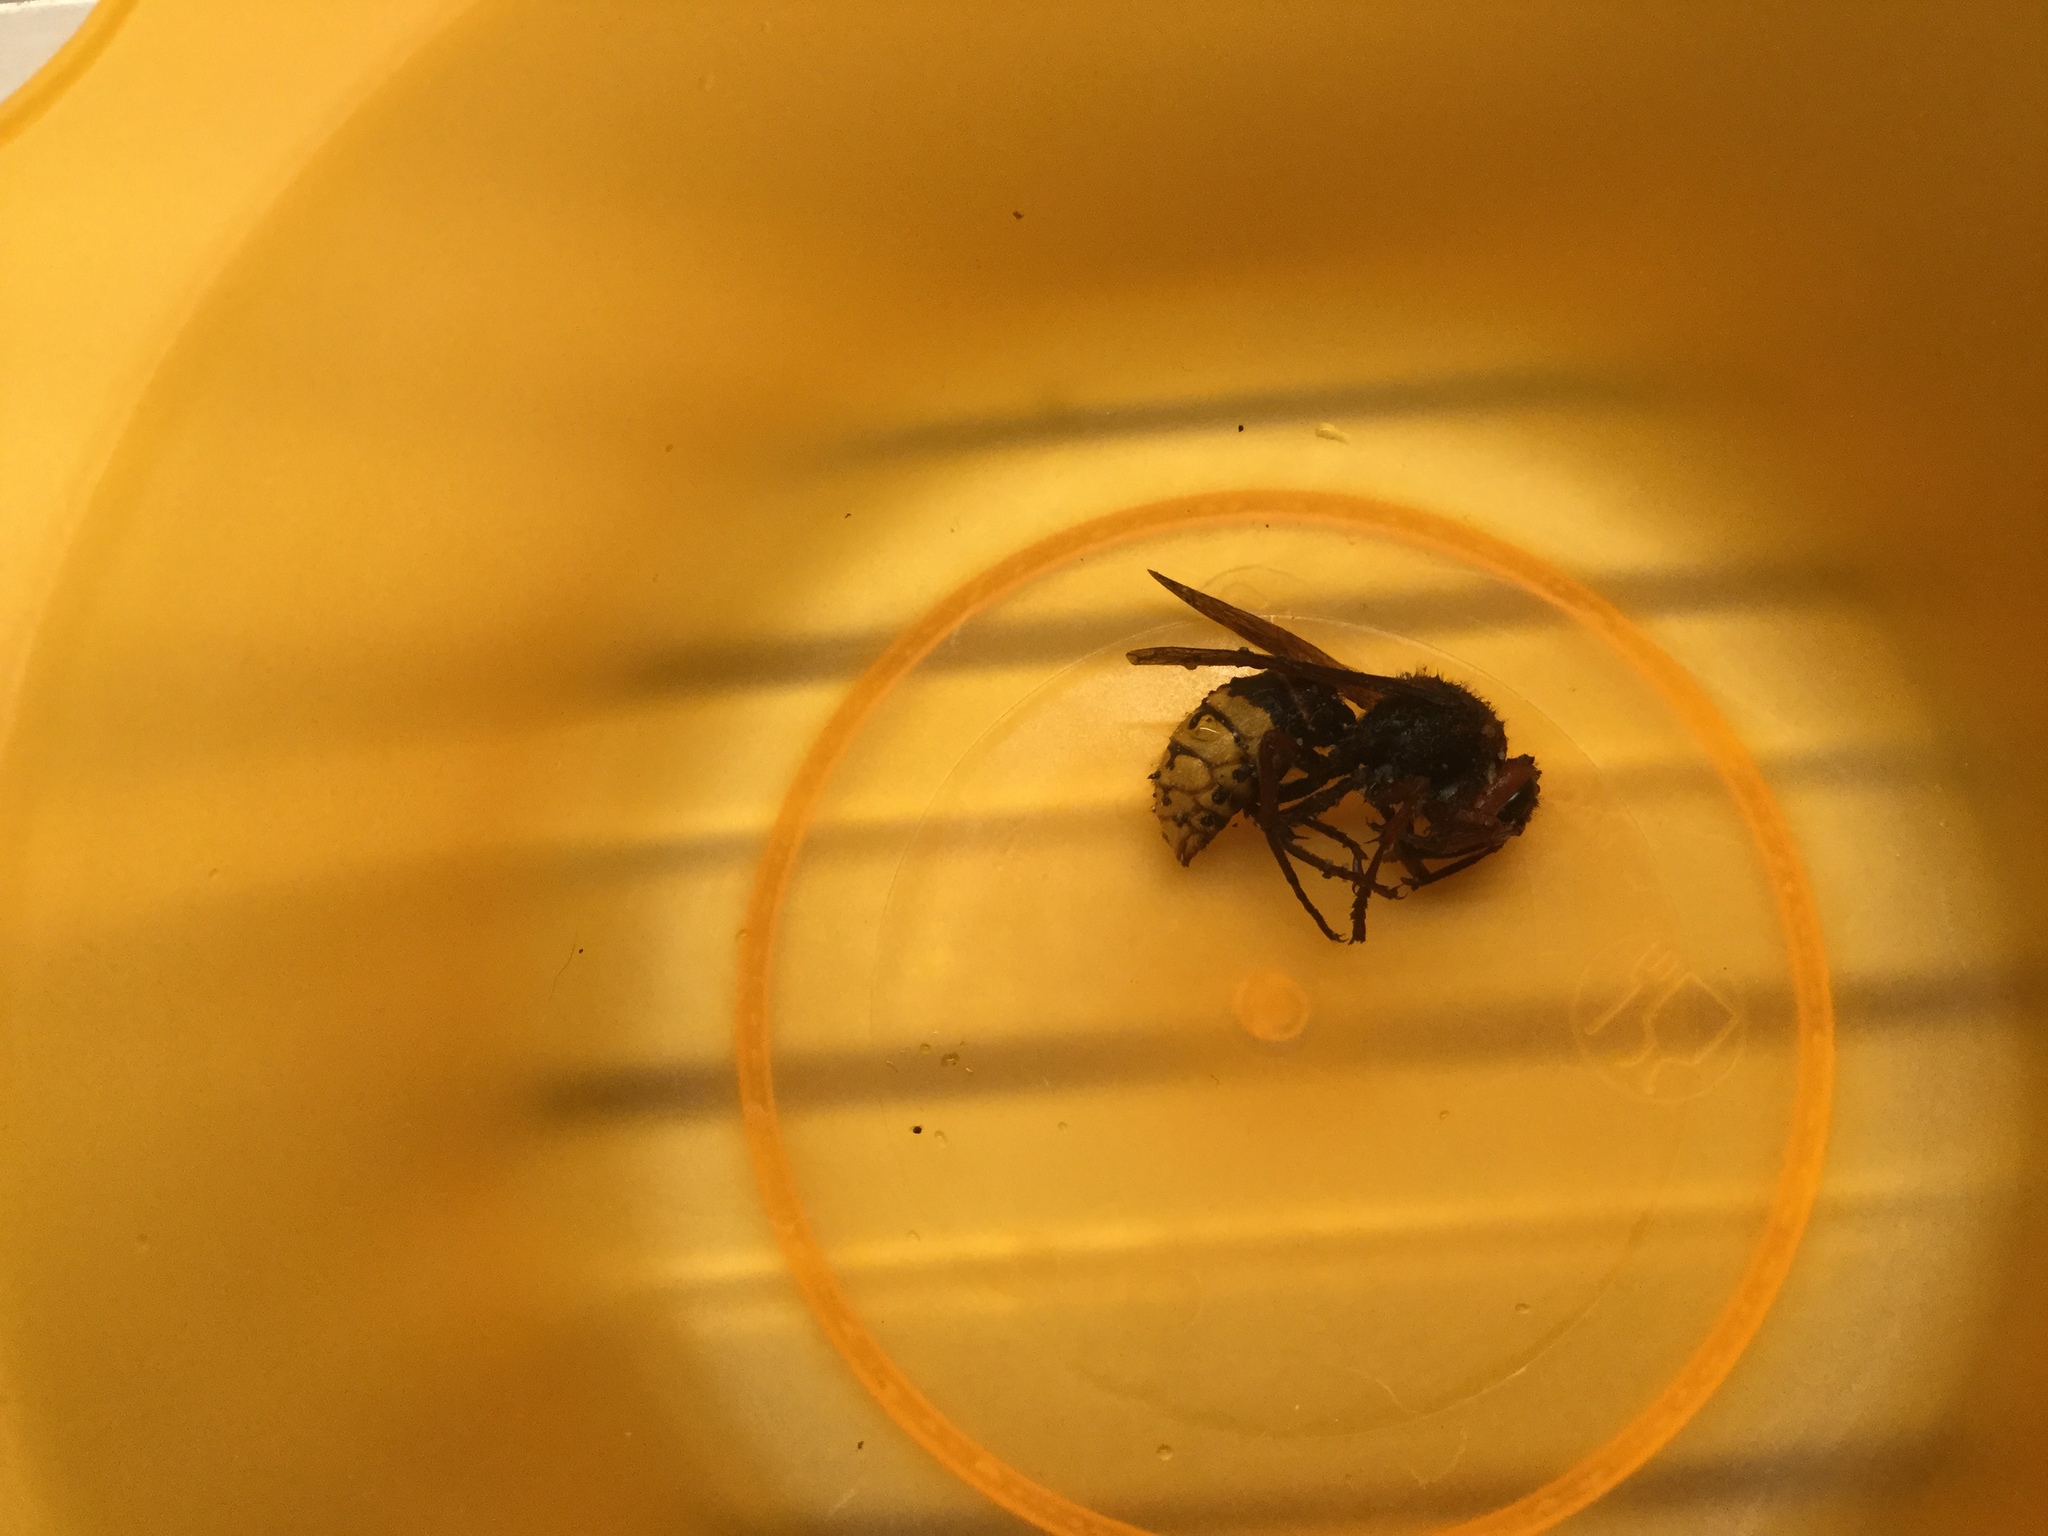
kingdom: Animalia
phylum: Arthropoda
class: Insecta
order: Hymenoptera
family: Vespidae
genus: Vespa
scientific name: Vespa crabro
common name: Hornet
